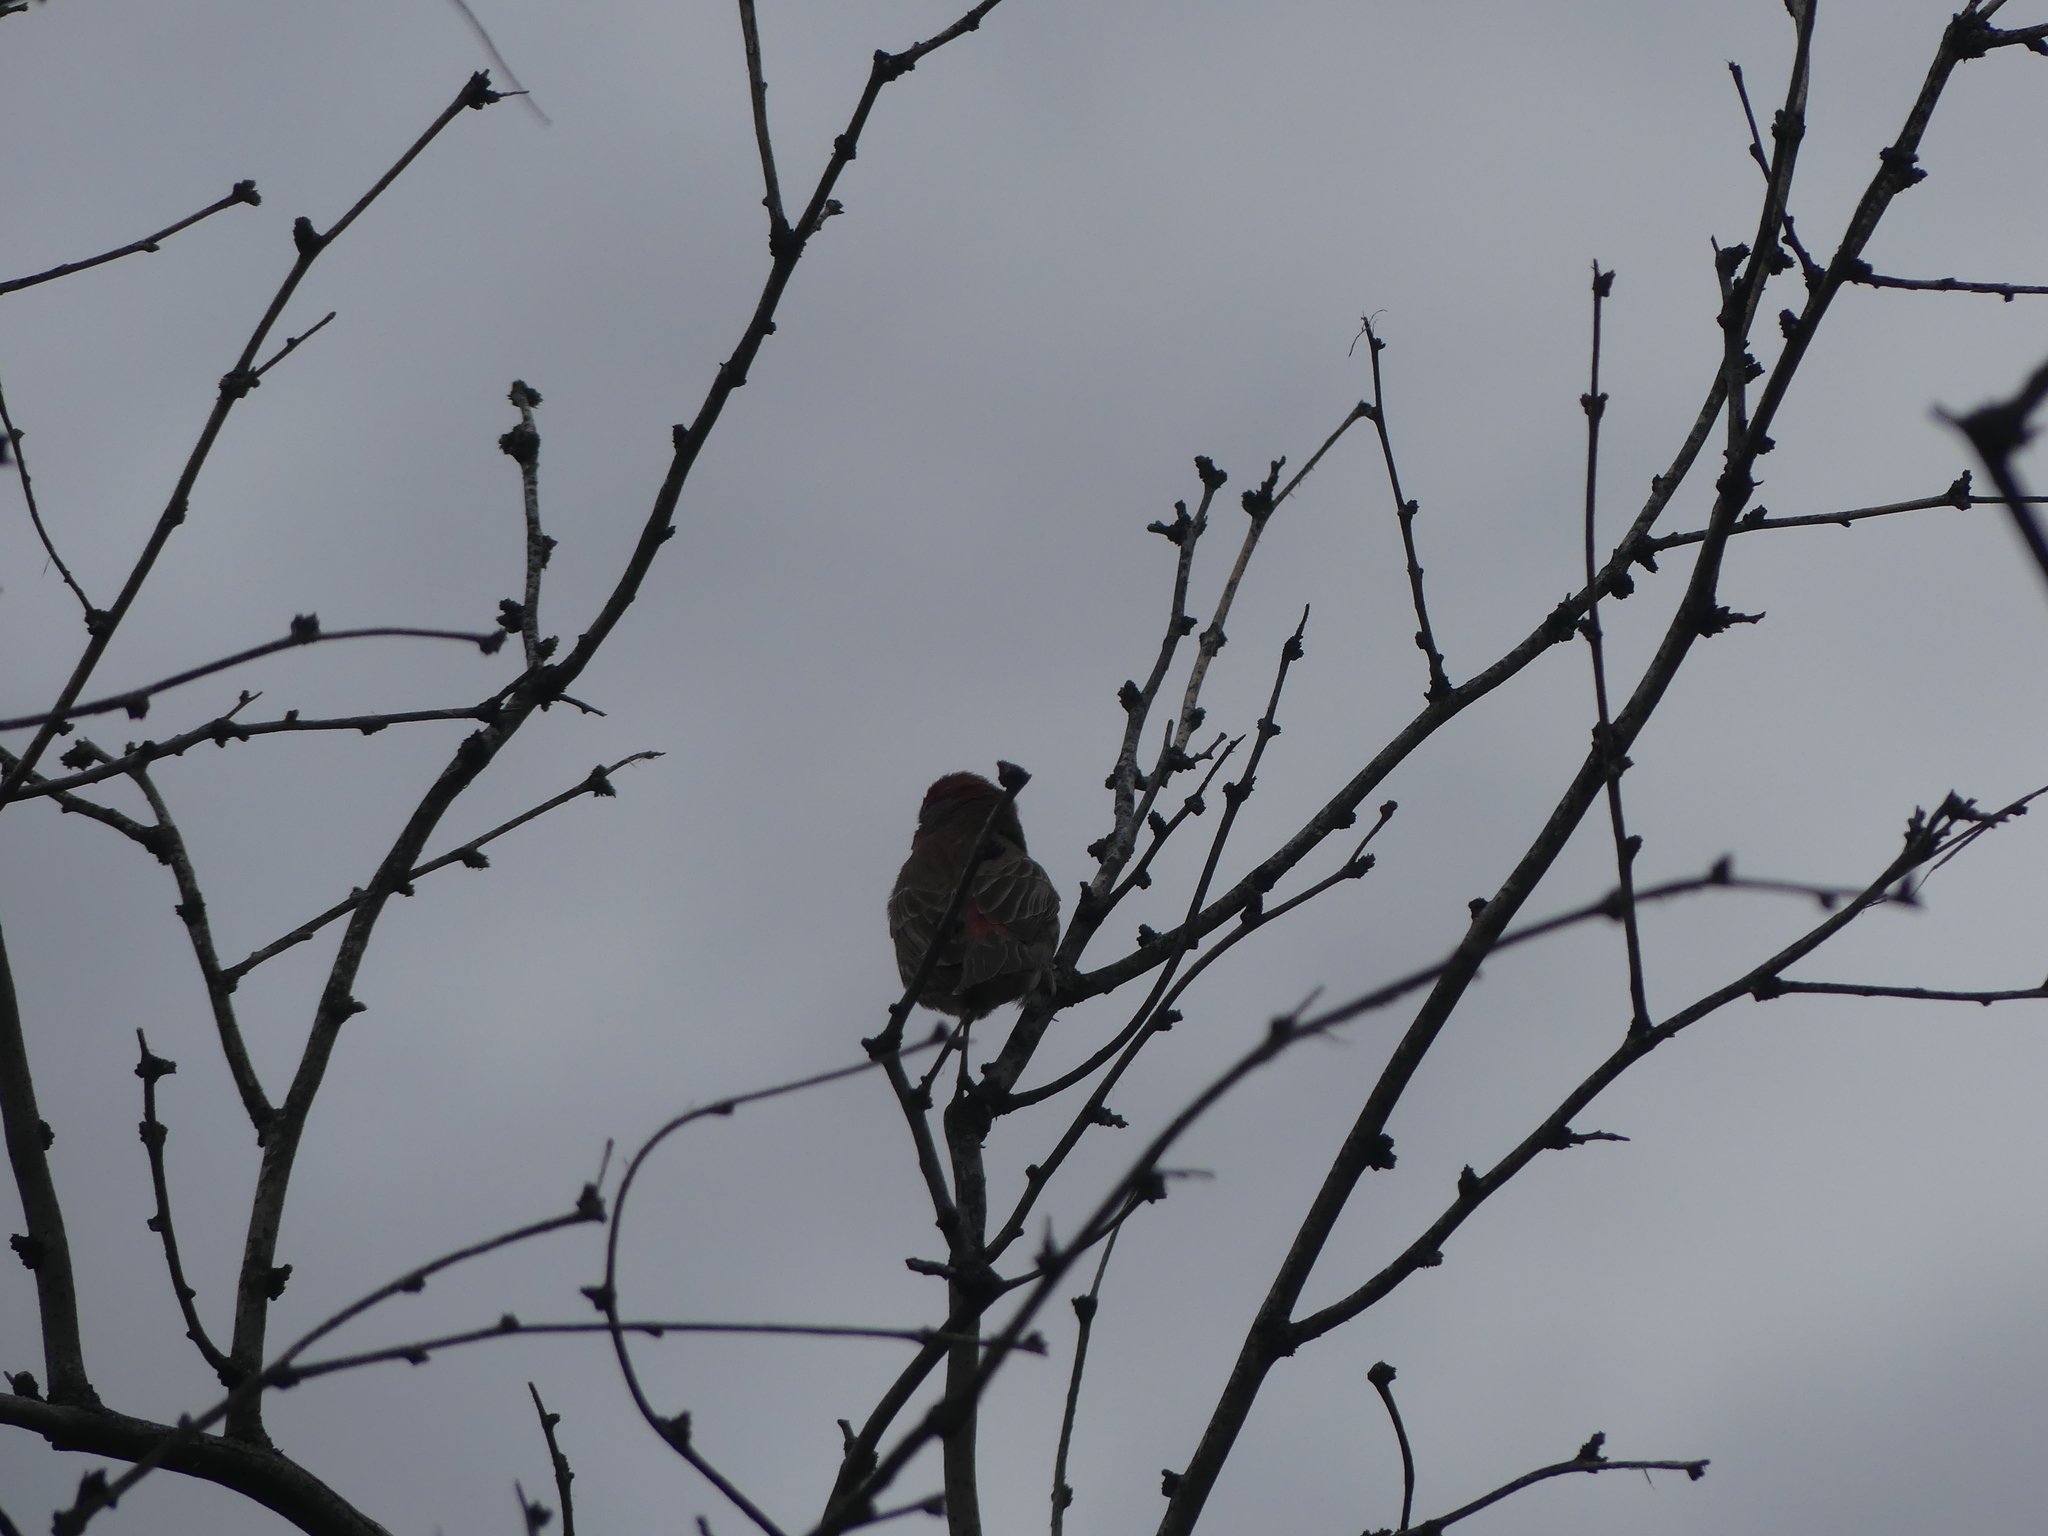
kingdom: Animalia
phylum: Chordata
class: Aves
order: Passeriformes
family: Fringillidae
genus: Haemorhous
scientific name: Haemorhous mexicanus
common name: House finch
